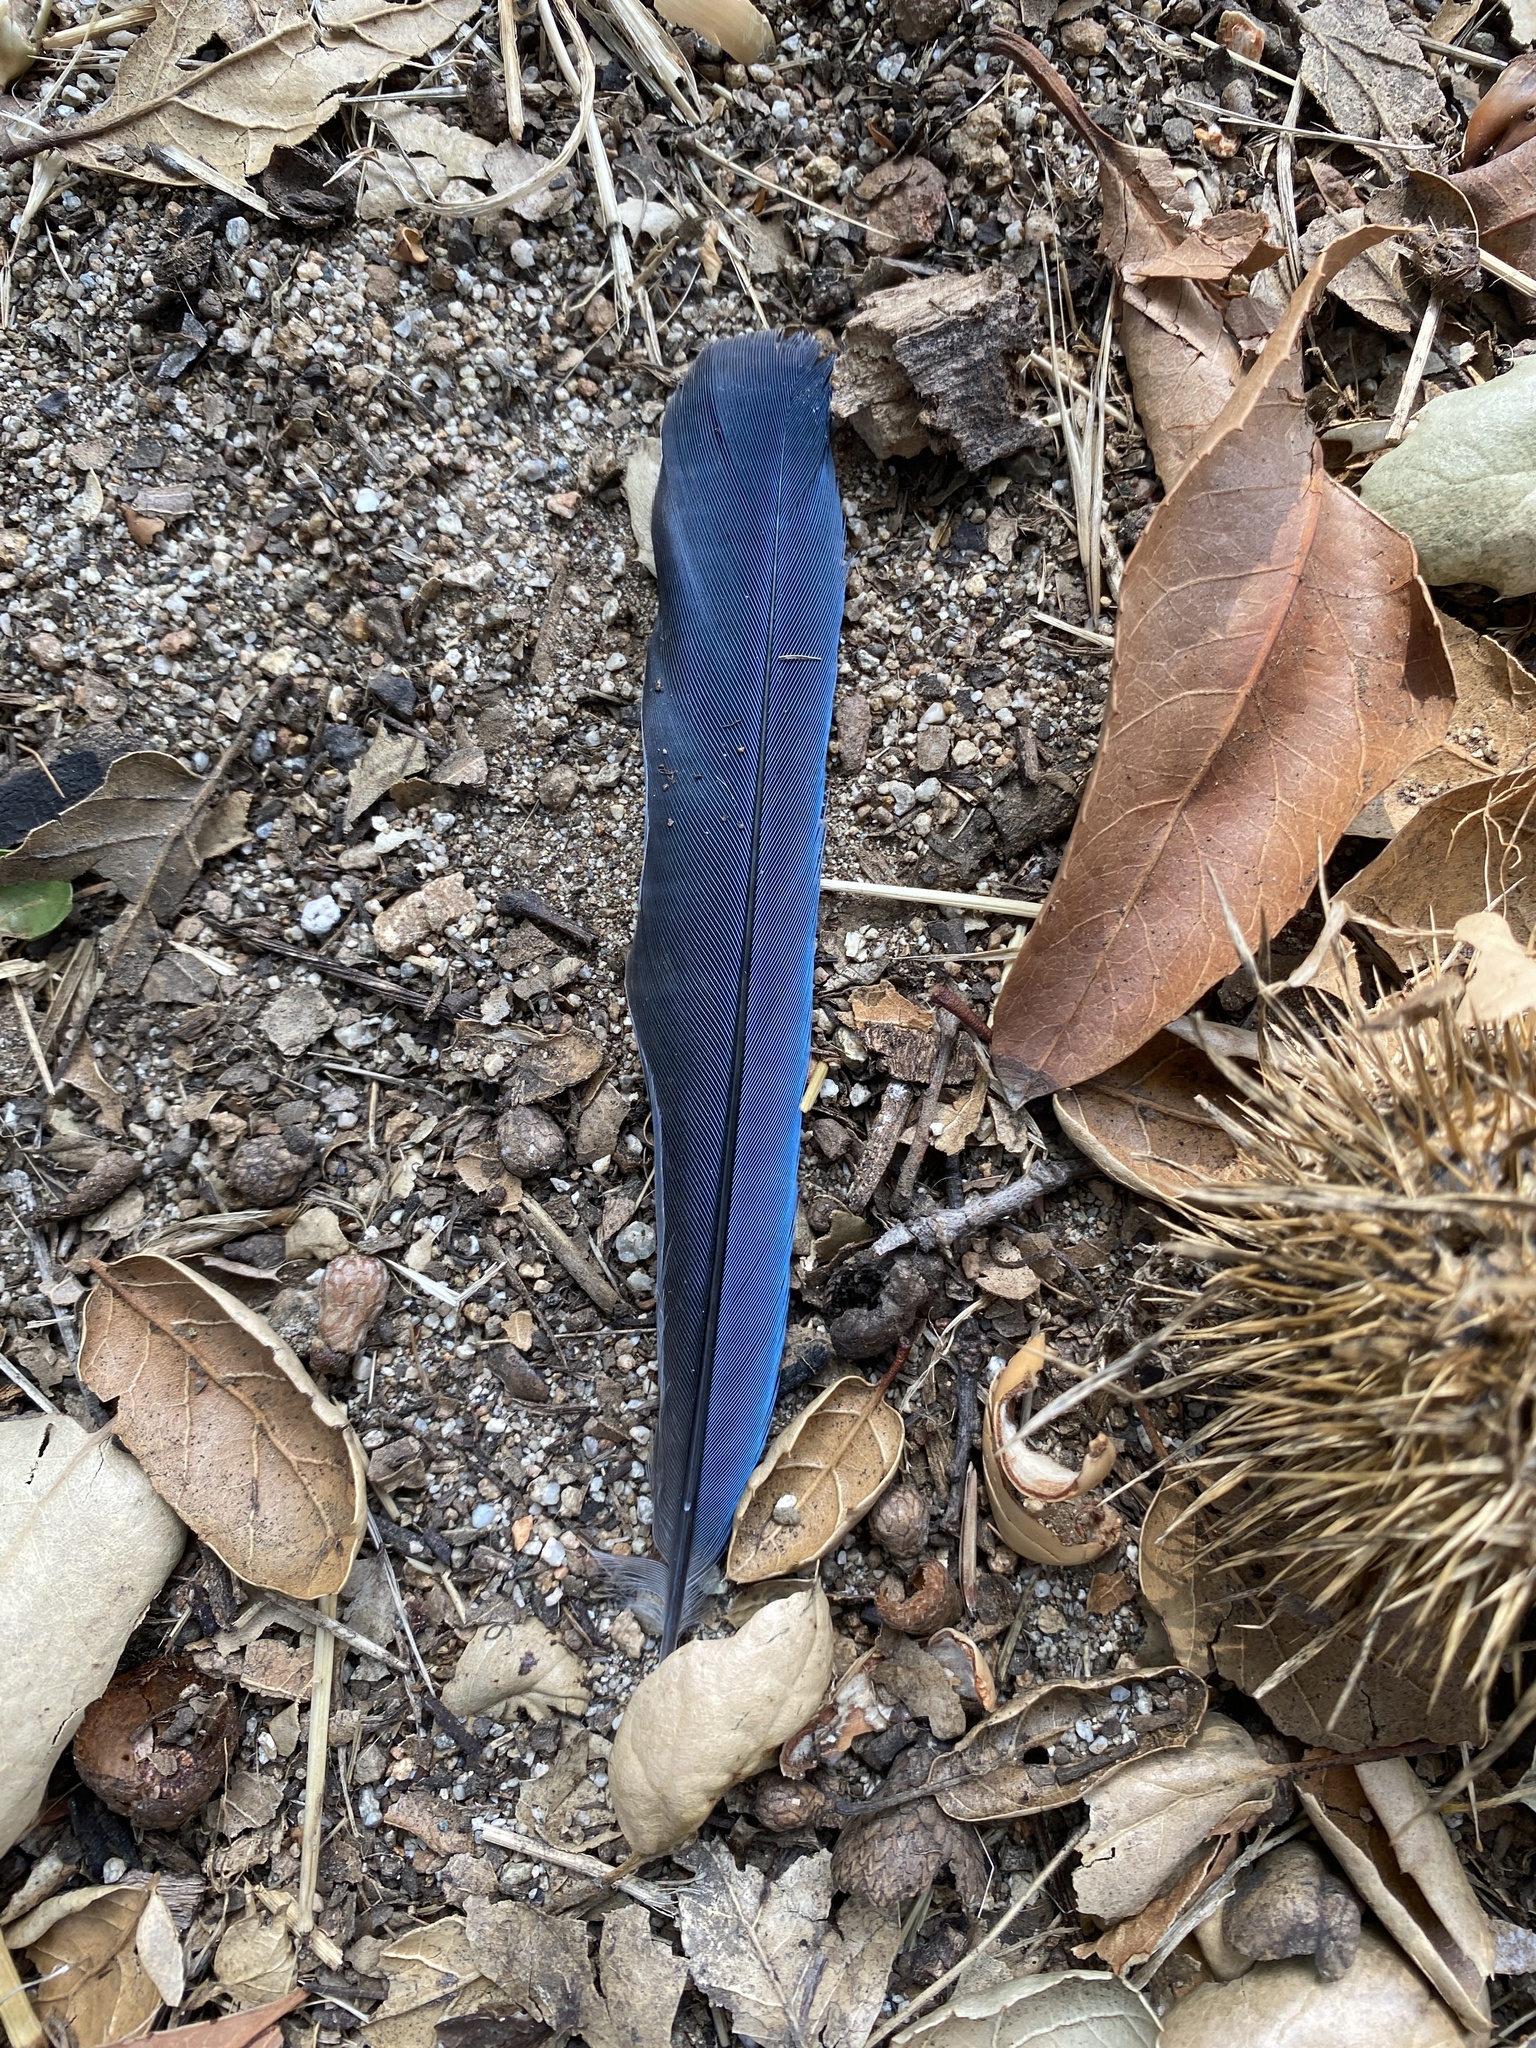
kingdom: Animalia
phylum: Chordata
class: Aves
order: Passeriformes
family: Corvidae
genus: Aphelocoma
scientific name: Aphelocoma californica
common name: California scrub-jay
